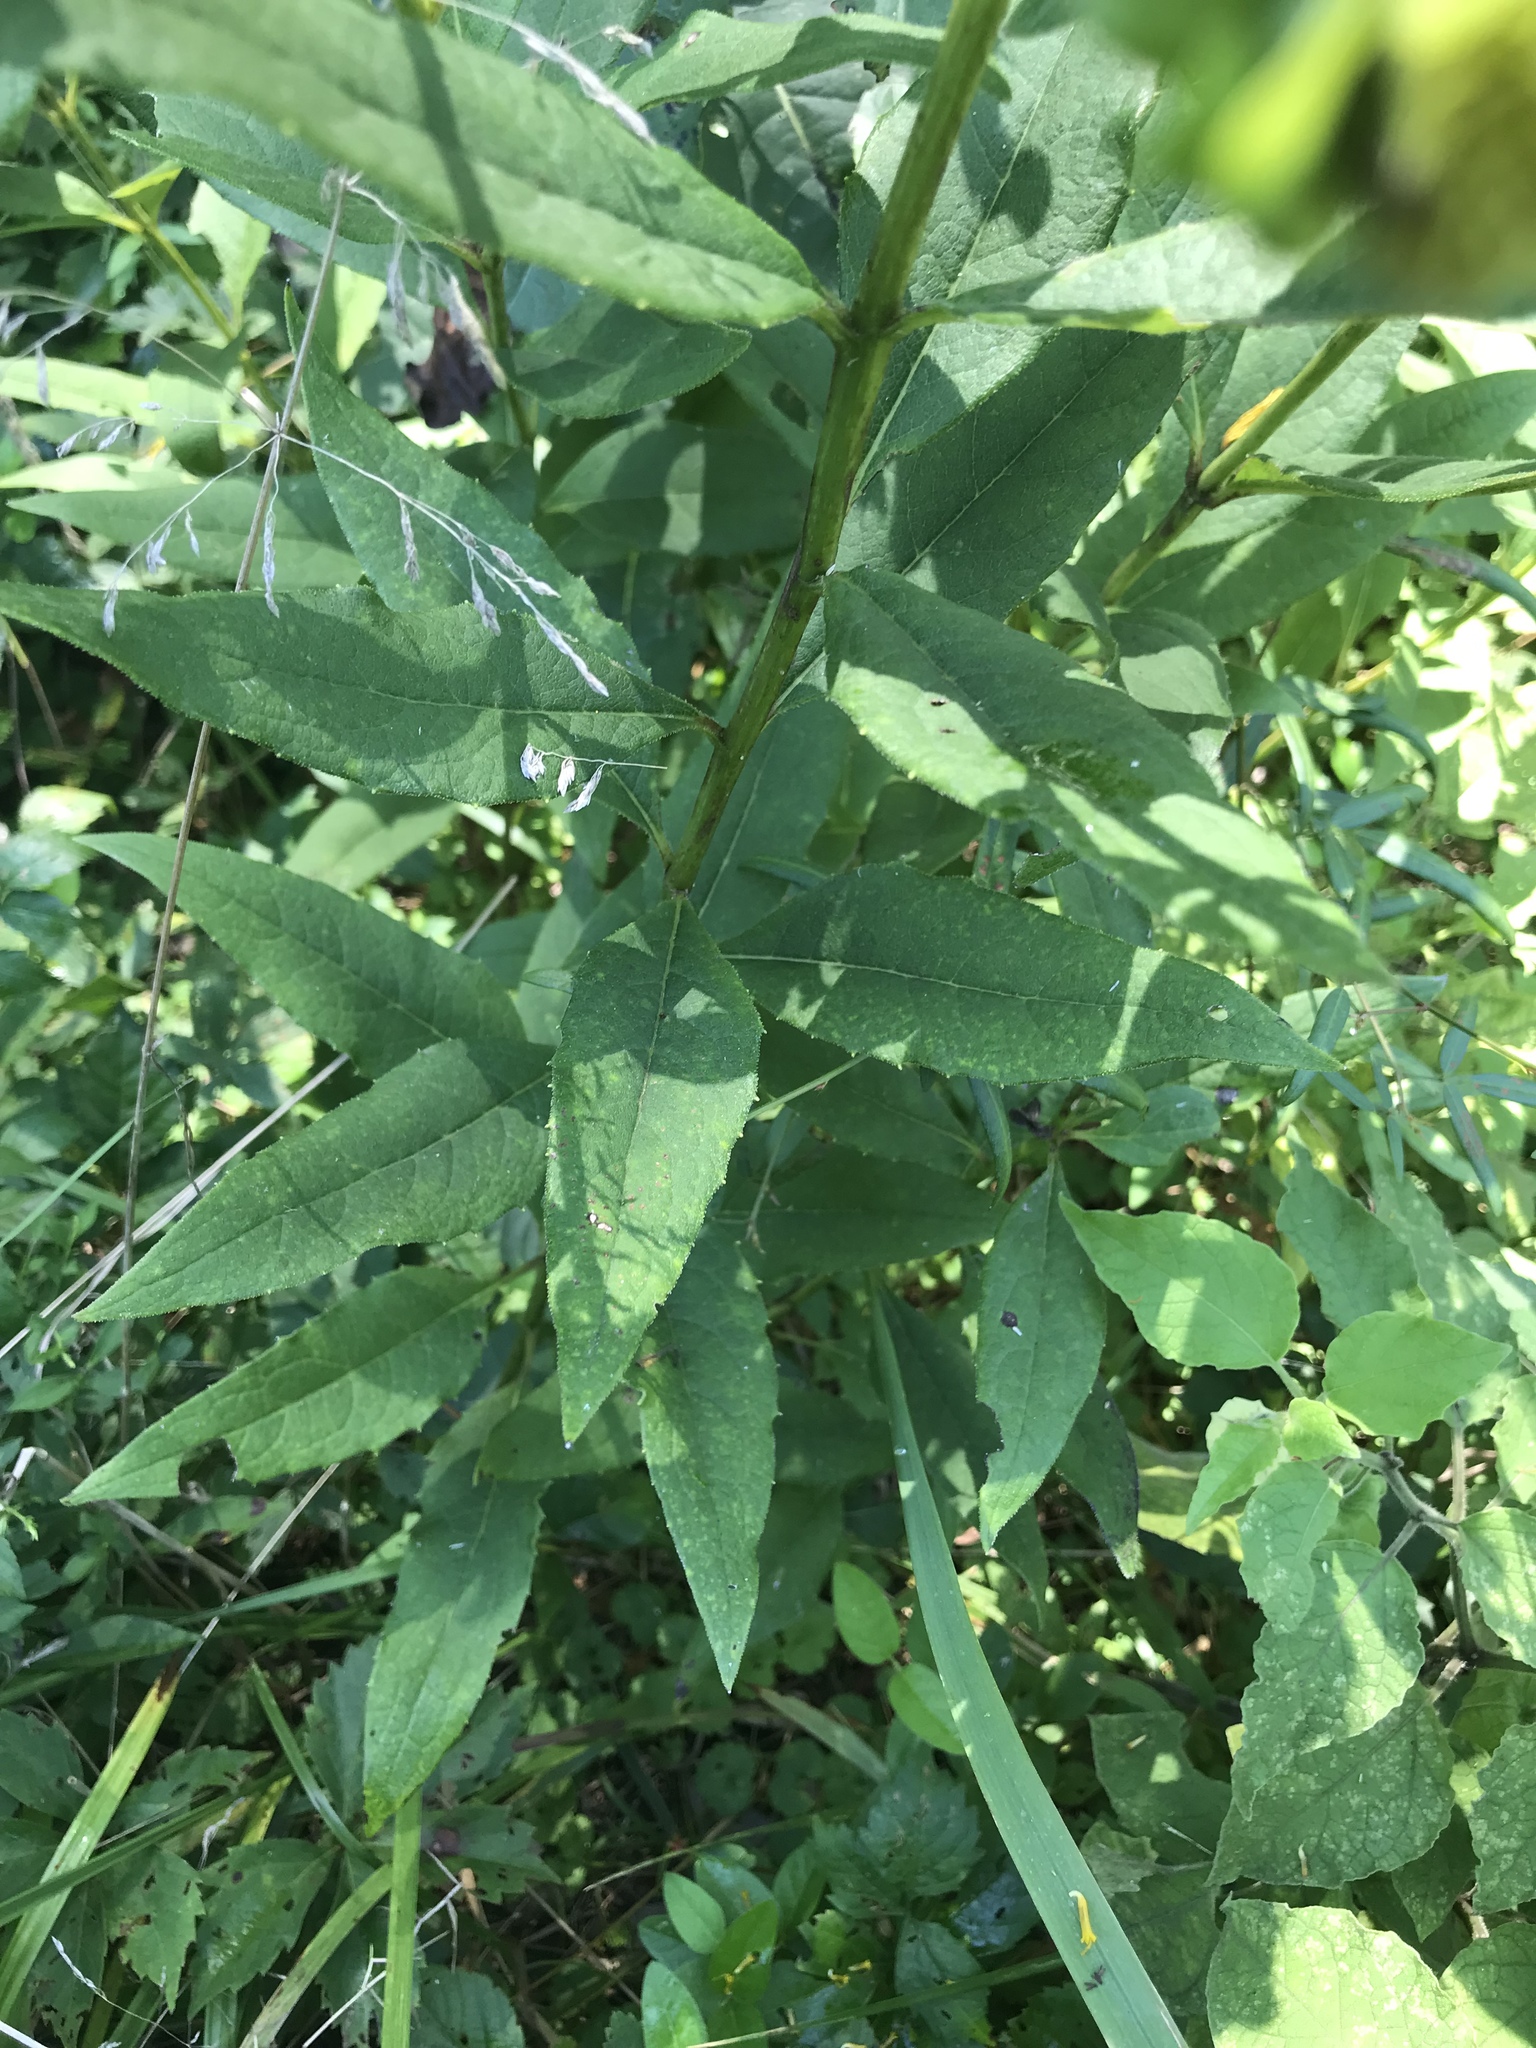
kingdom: Plantae
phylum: Tracheophyta
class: Magnoliopsida
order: Asterales
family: Asteraceae
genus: Silphium
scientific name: Silphium asteriscus
